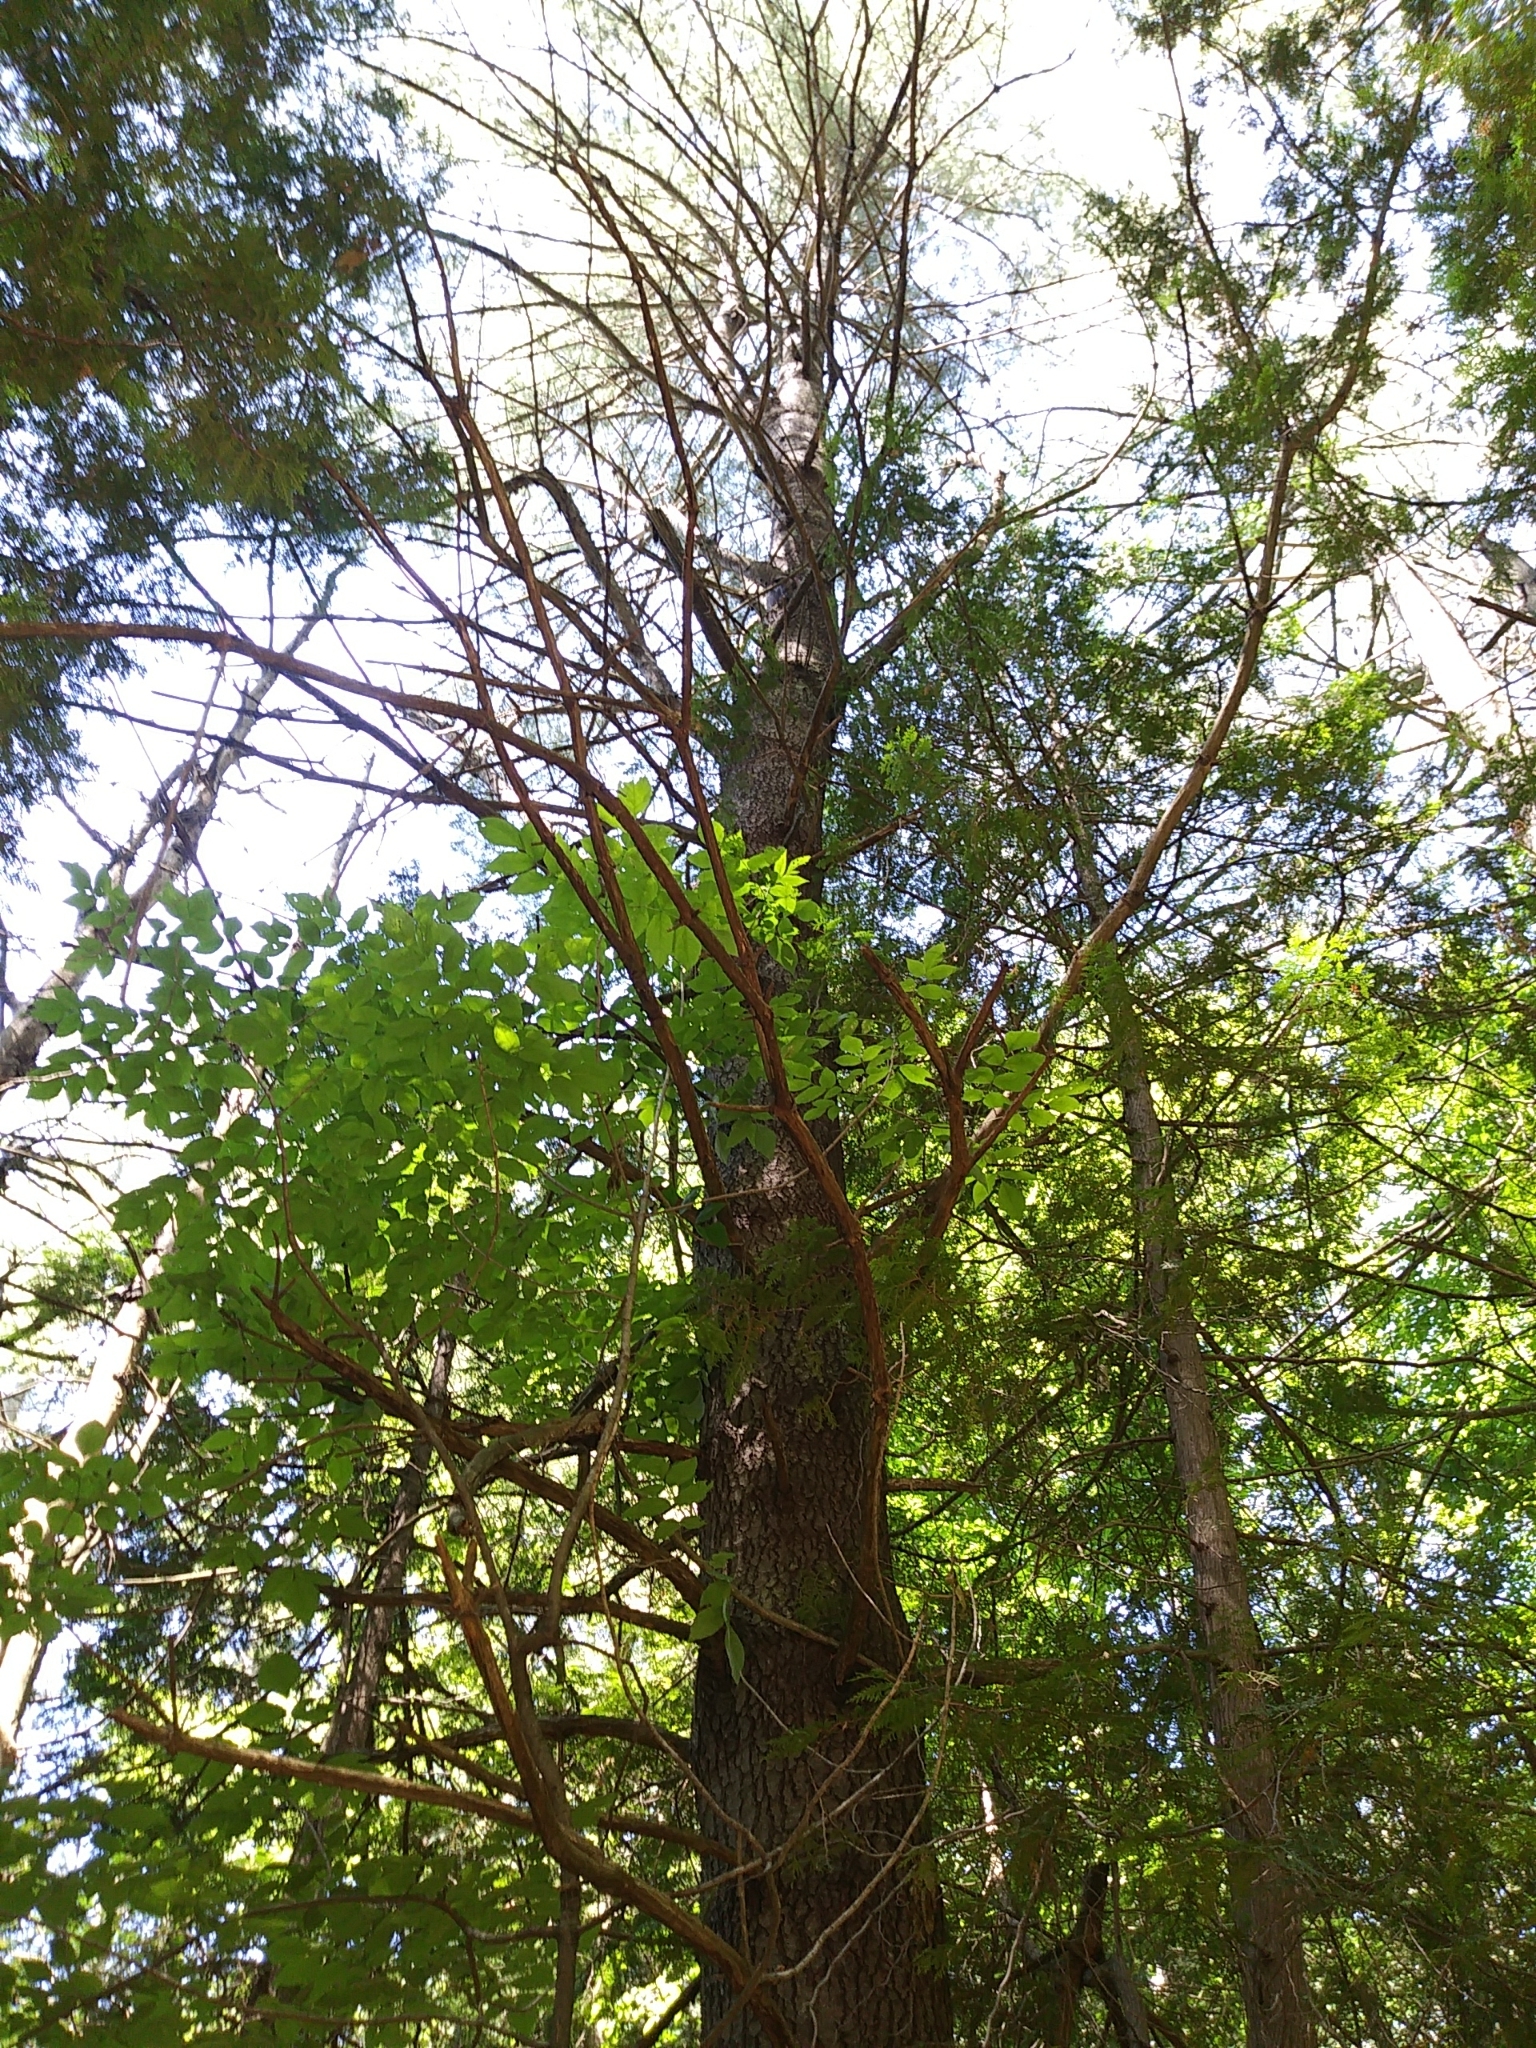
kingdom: Plantae
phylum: Tracheophyta
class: Pinopsida
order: Pinales
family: Pinaceae
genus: Pinus
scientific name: Pinus strobus
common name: Weymouth pine
